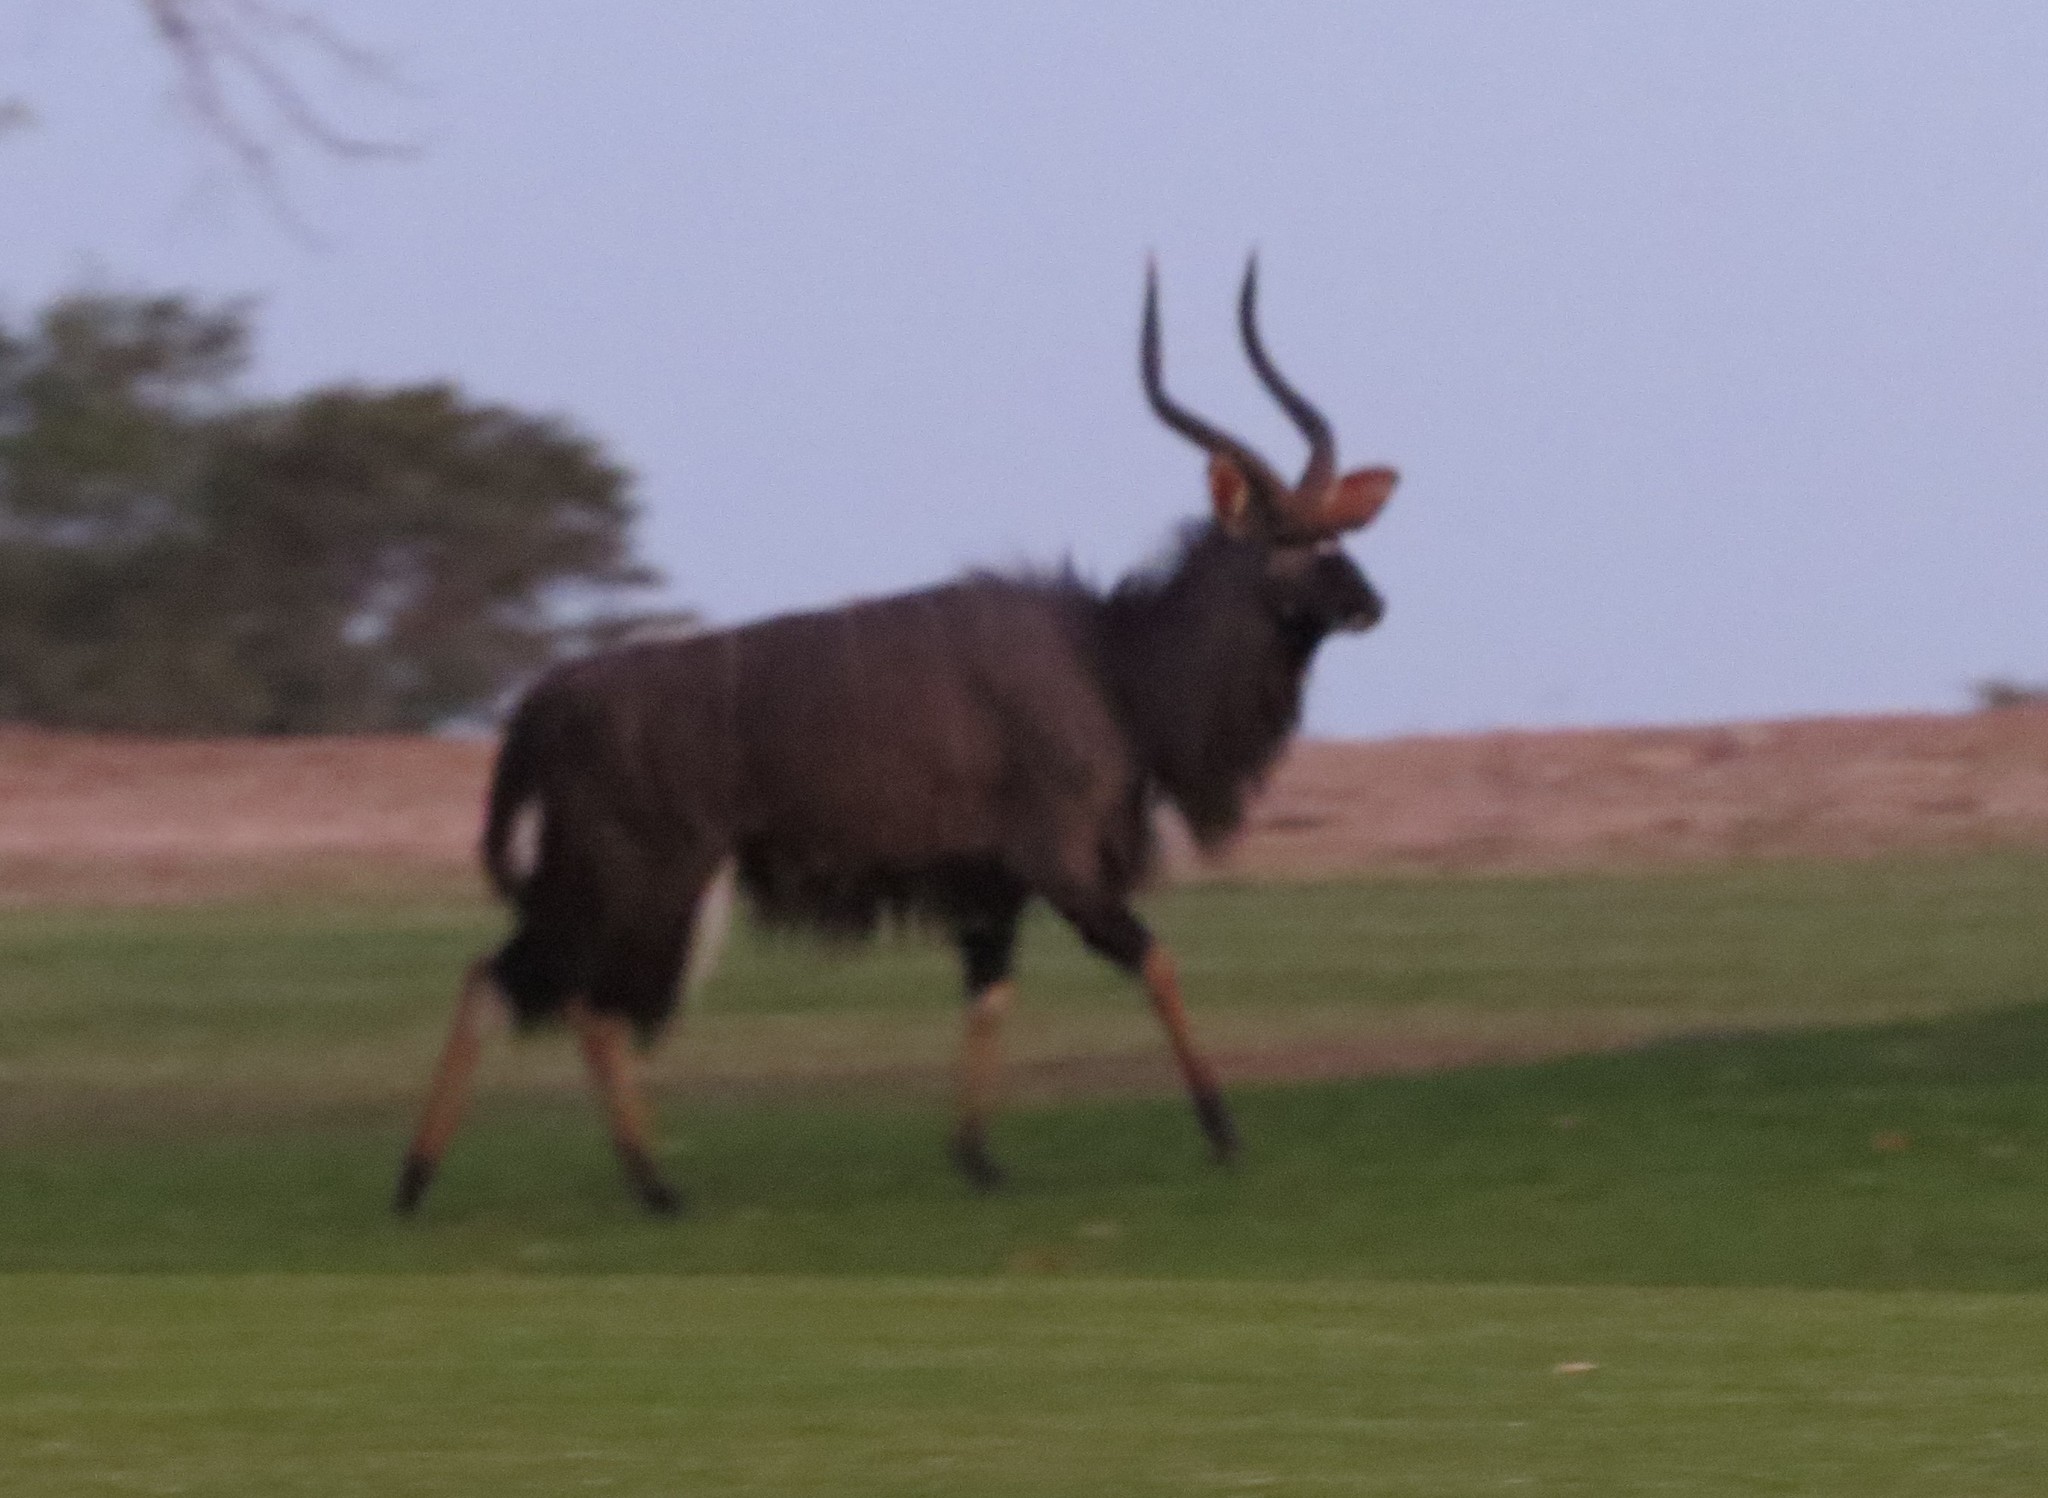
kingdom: Animalia
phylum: Chordata
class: Mammalia
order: Artiodactyla
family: Bovidae
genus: Tragelaphus
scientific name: Tragelaphus angasii
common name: Nyala
